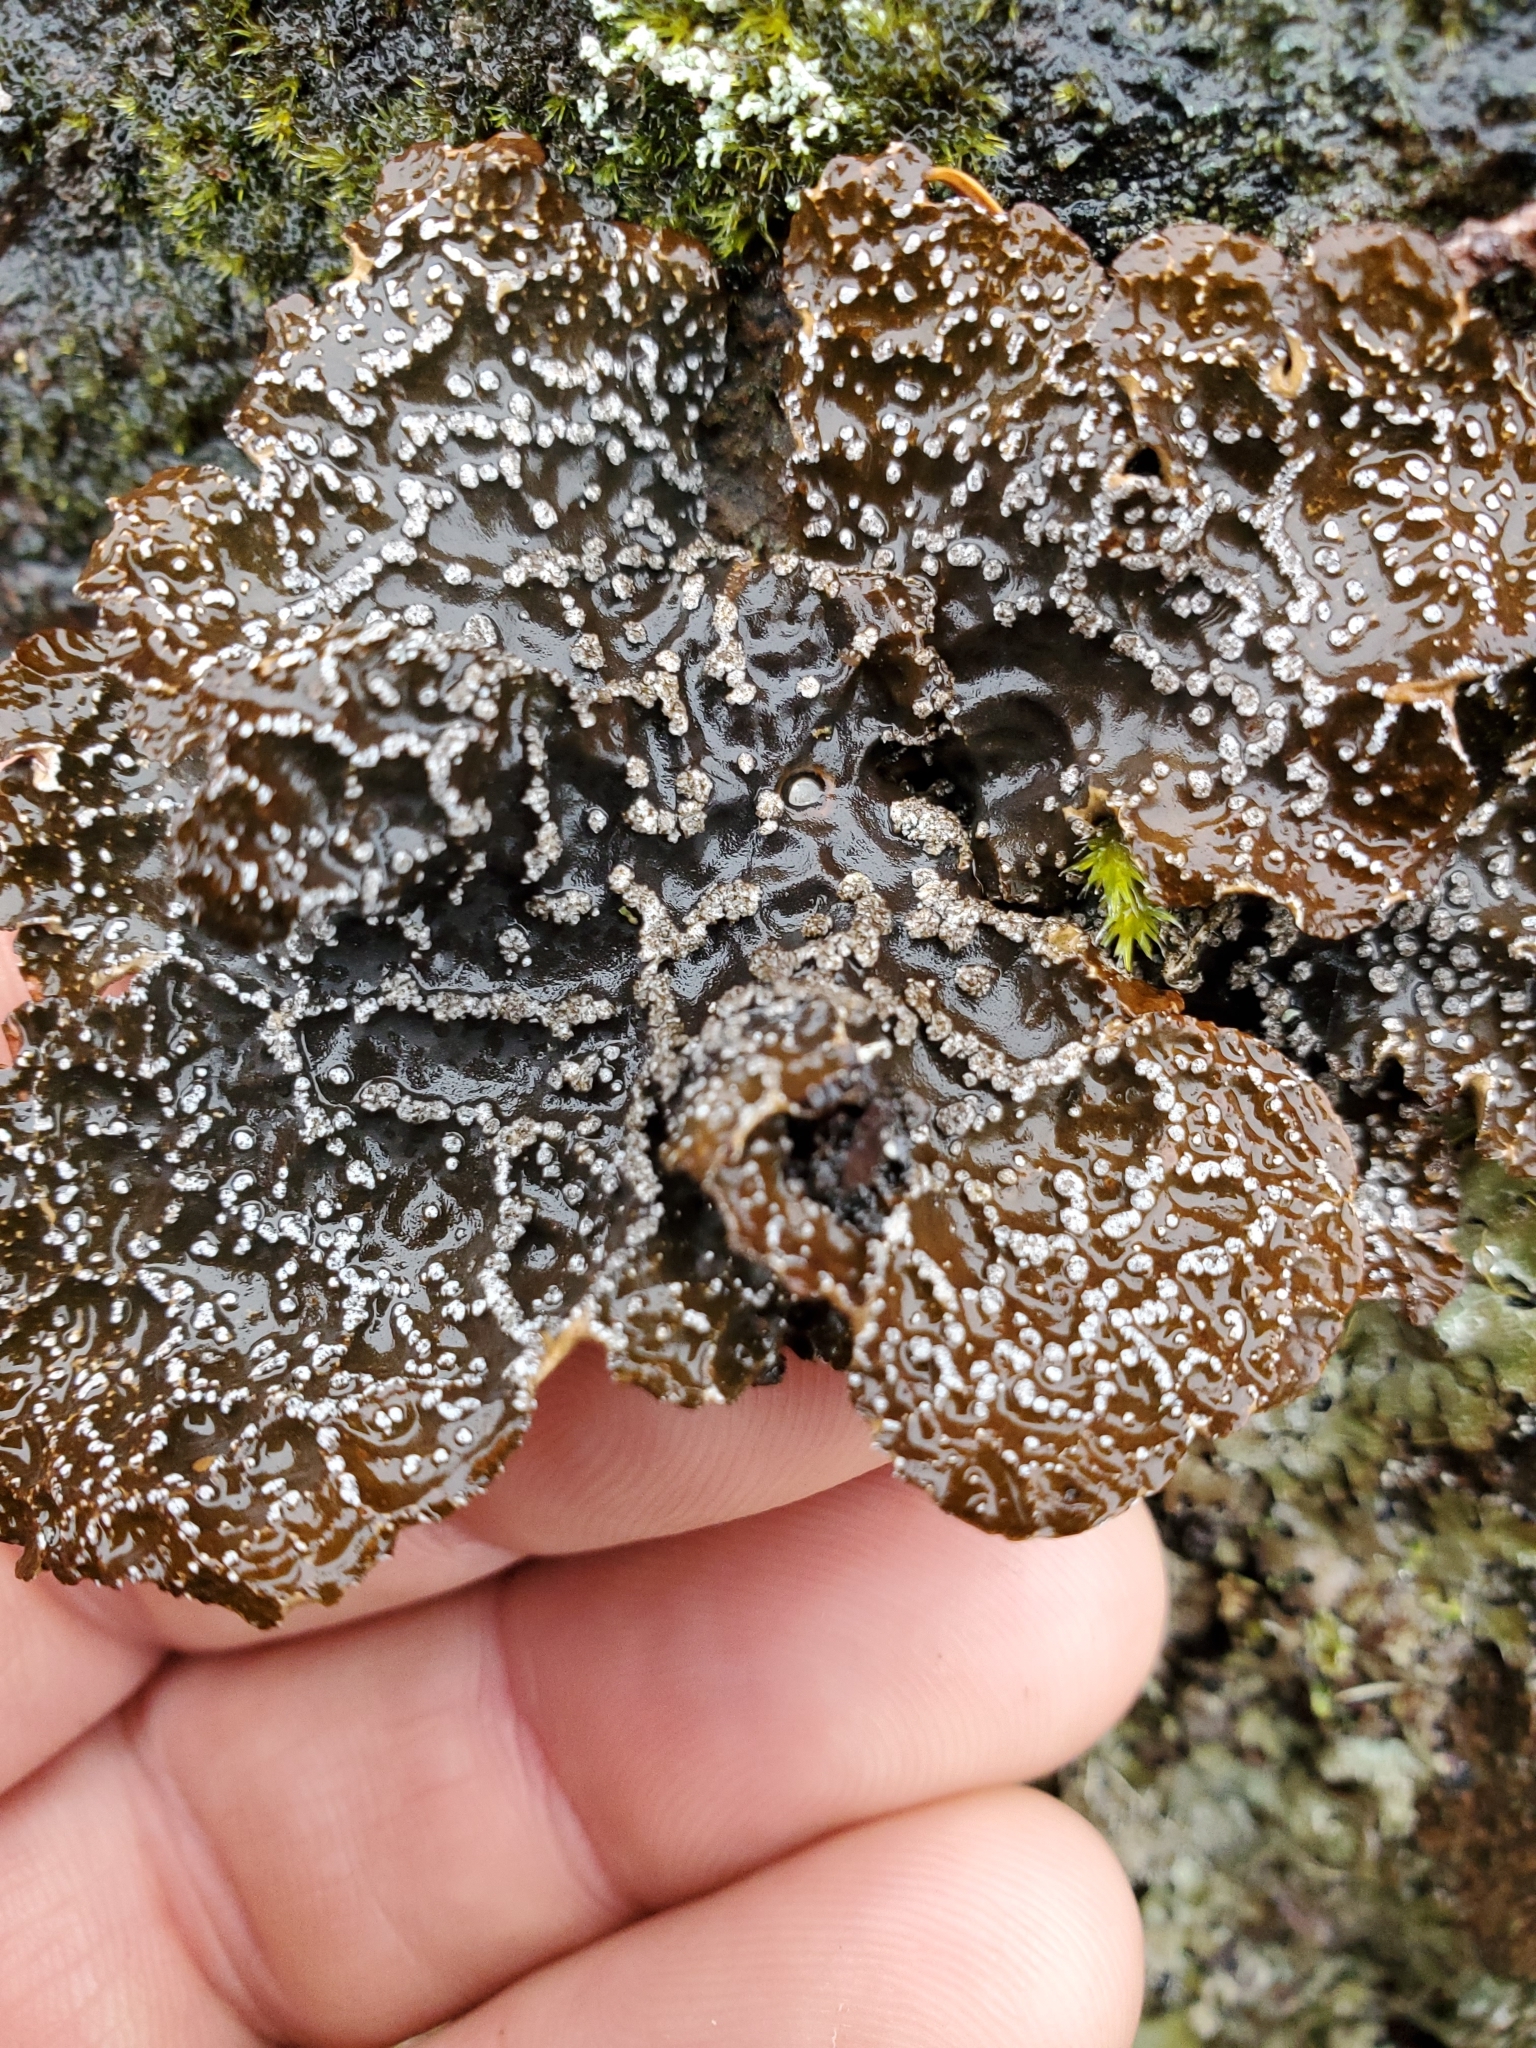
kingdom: Fungi
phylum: Ascomycota
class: Lecanoromycetes
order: Peltigerales
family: Lobariaceae
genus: Lobaria
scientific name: Lobaria anomala
